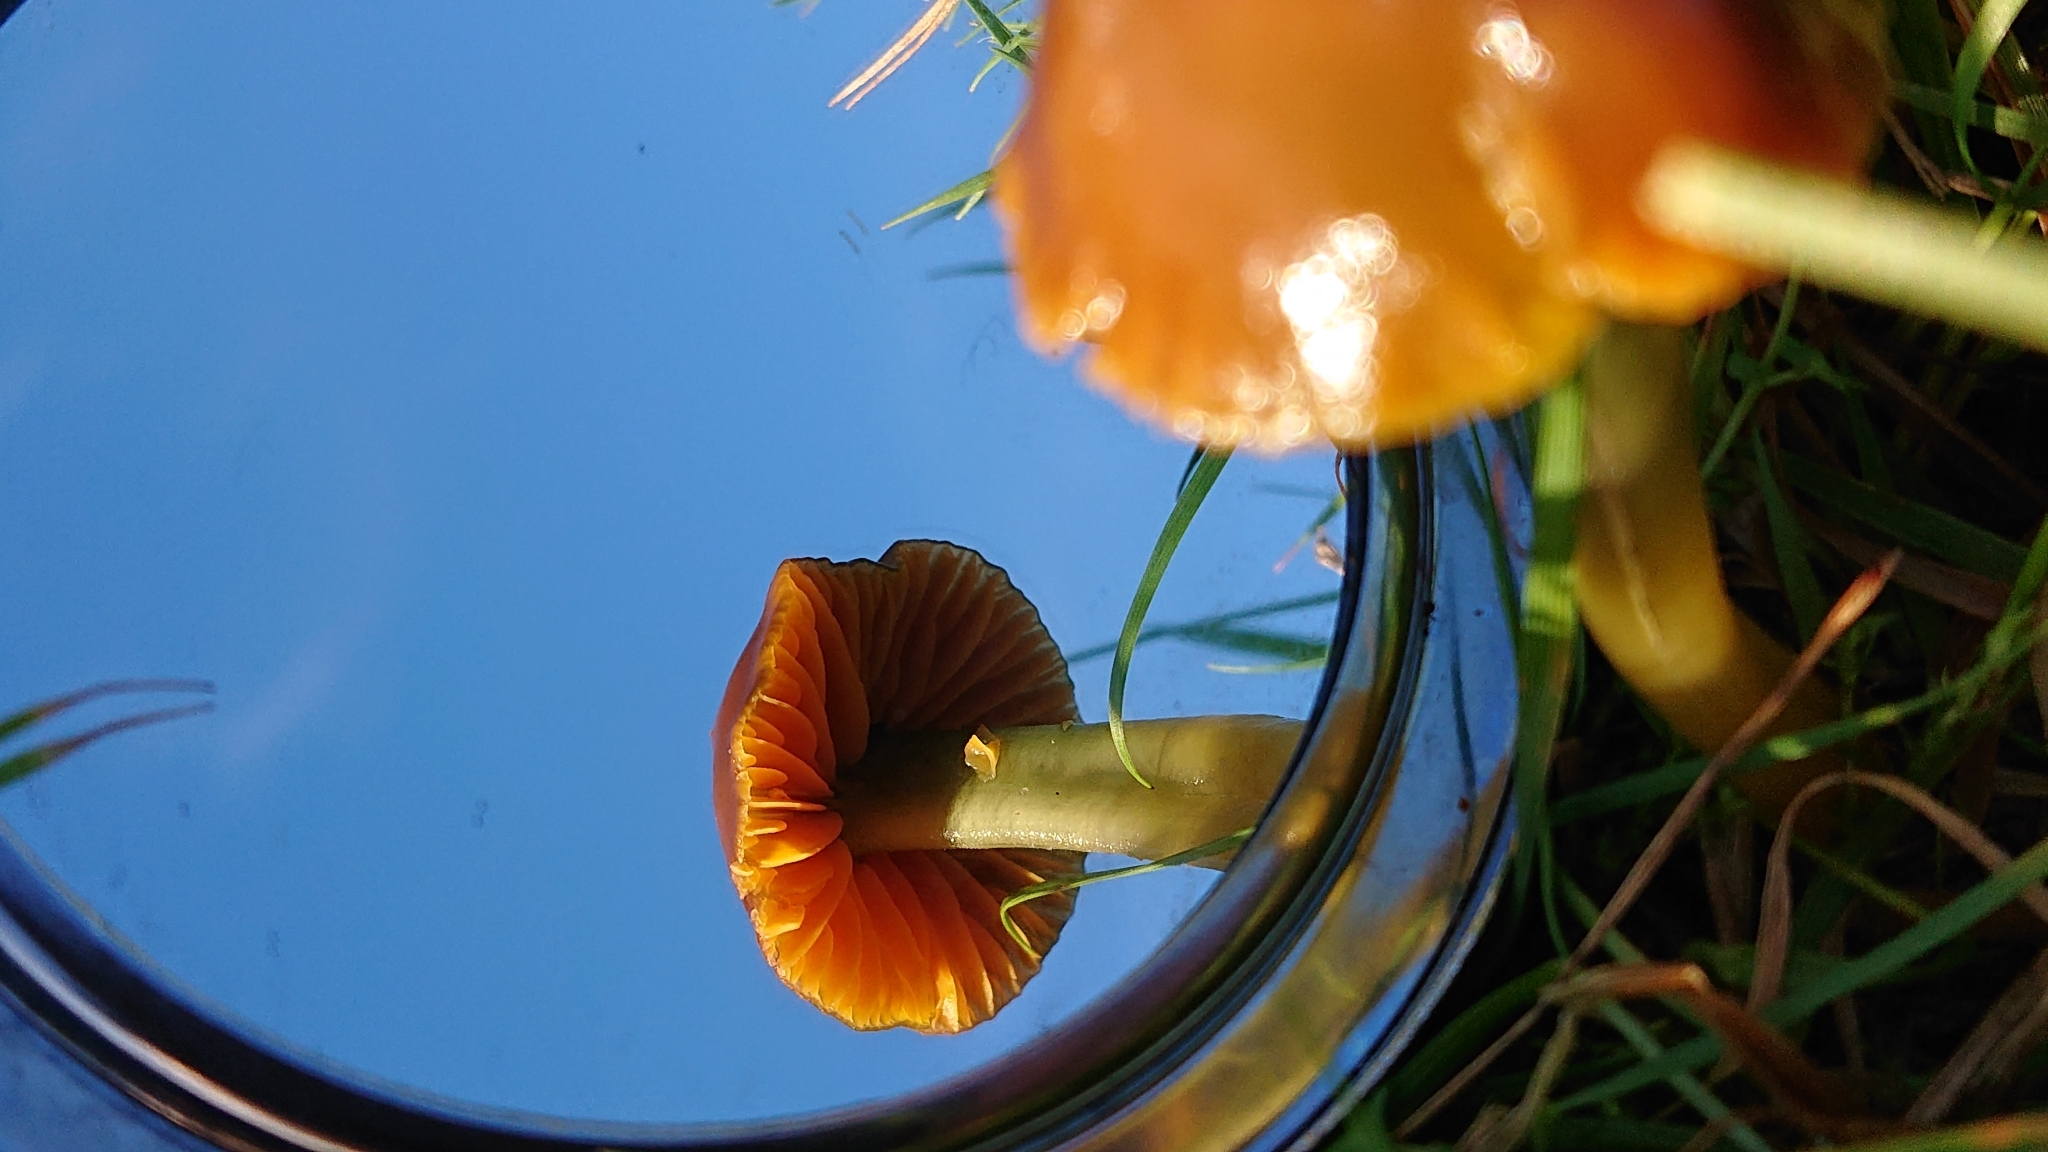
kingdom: Fungi
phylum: Basidiomycota
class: Agaricomycetes
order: Agaricales
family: Hygrophoraceae
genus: Gliophorus
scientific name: Gliophorus psittacinus
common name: Parrot wax-cap
